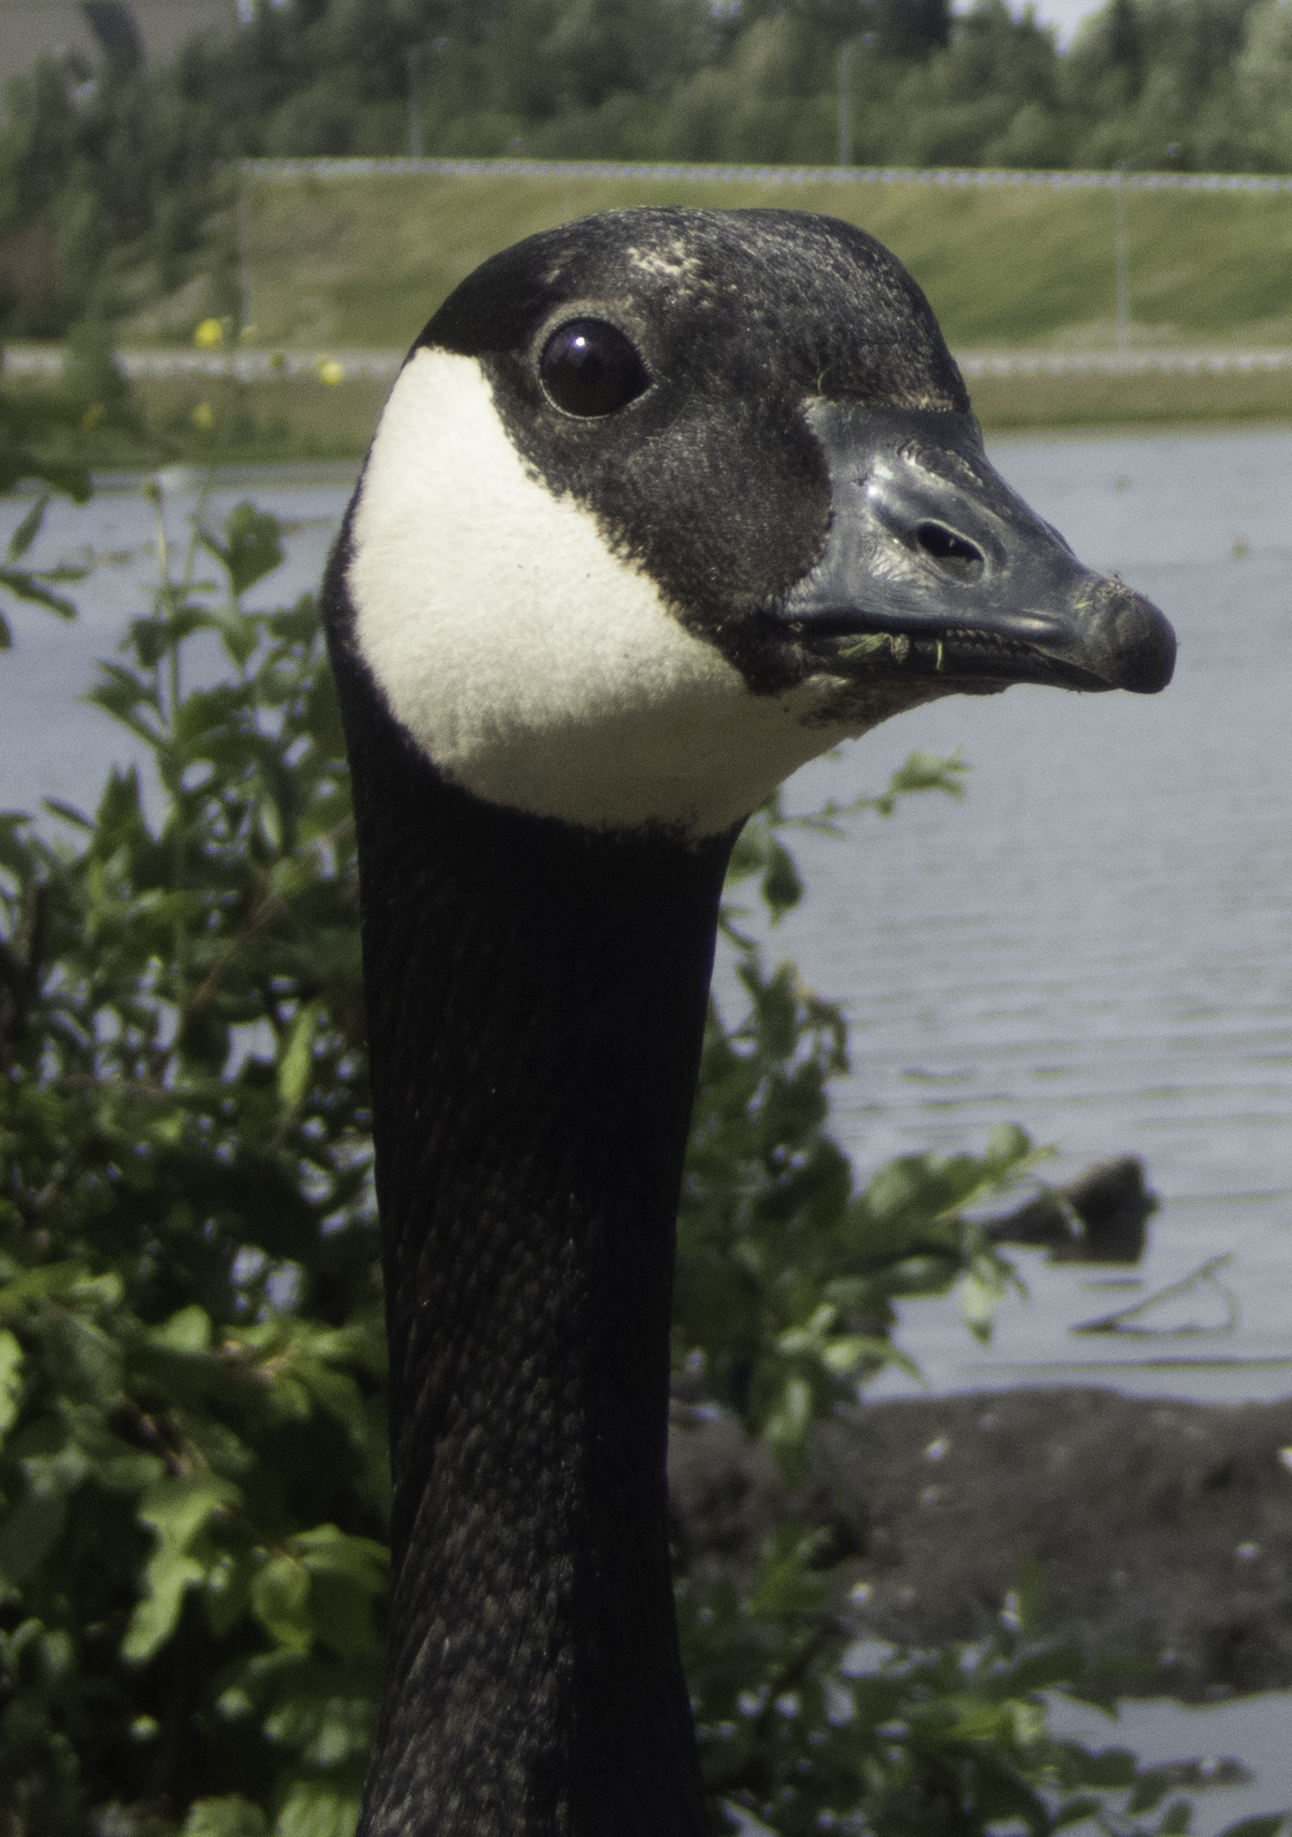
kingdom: Animalia
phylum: Chordata
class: Aves
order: Anseriformes
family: Anatidae
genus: Branta
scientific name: Branta canadensis
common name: Canada goose
